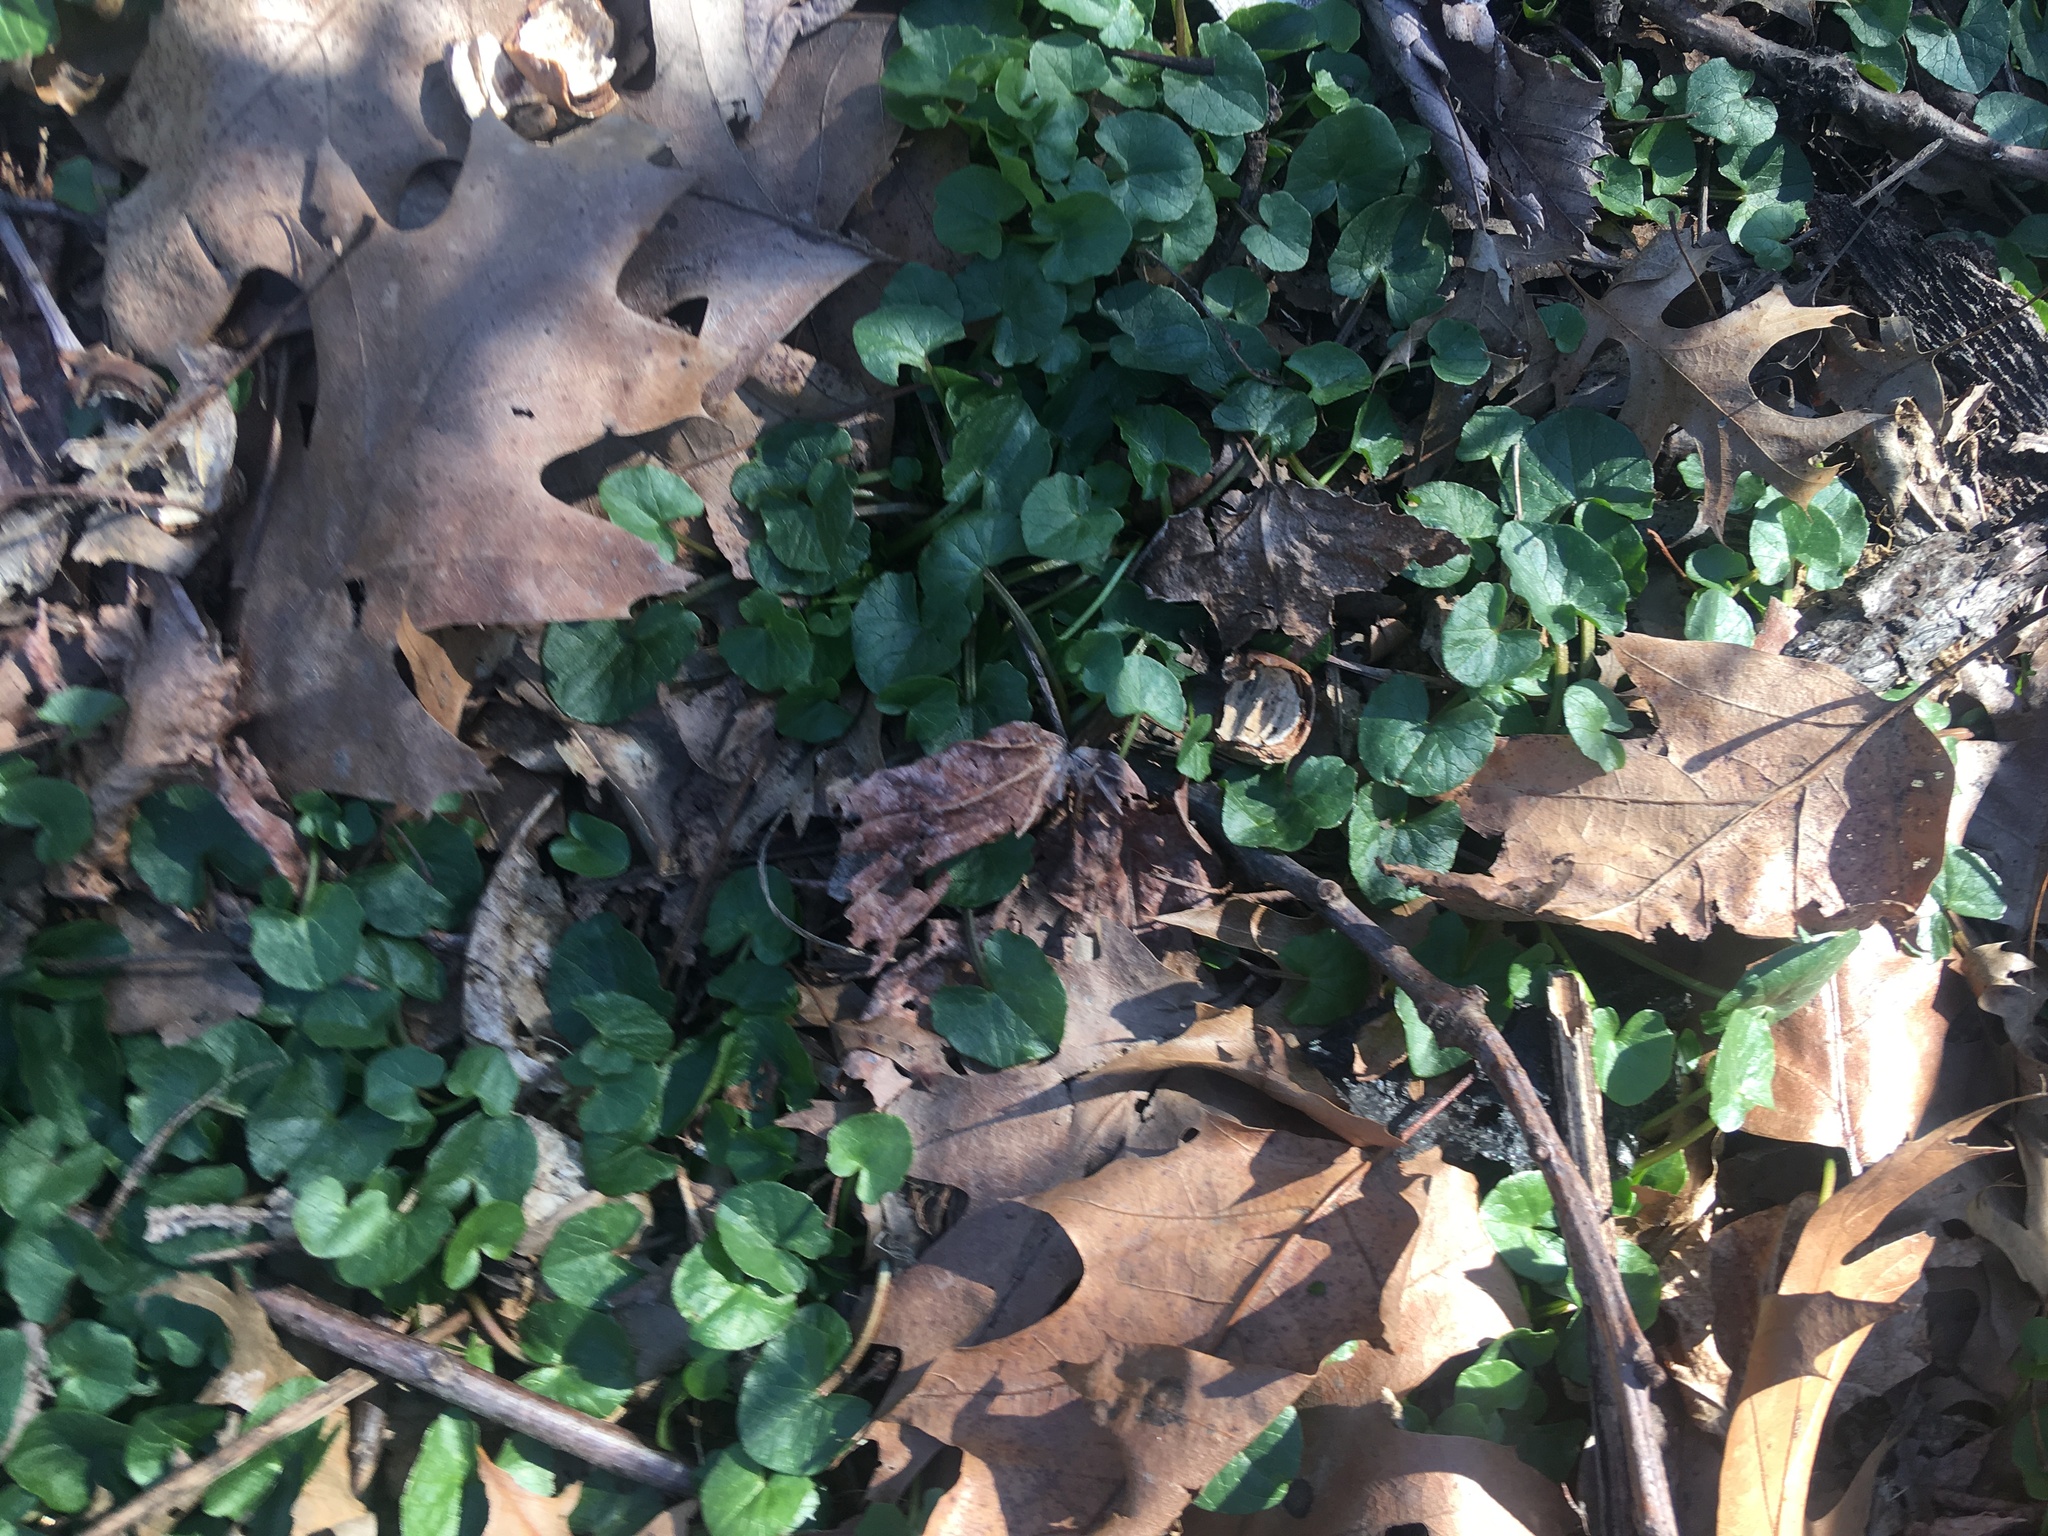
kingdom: Plantae
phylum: Tracheophyta
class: Magnoliopsida
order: Ranunculales
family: Ranunculaceae
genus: Ficaria
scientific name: Ficaria verna
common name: Lesser celandine
